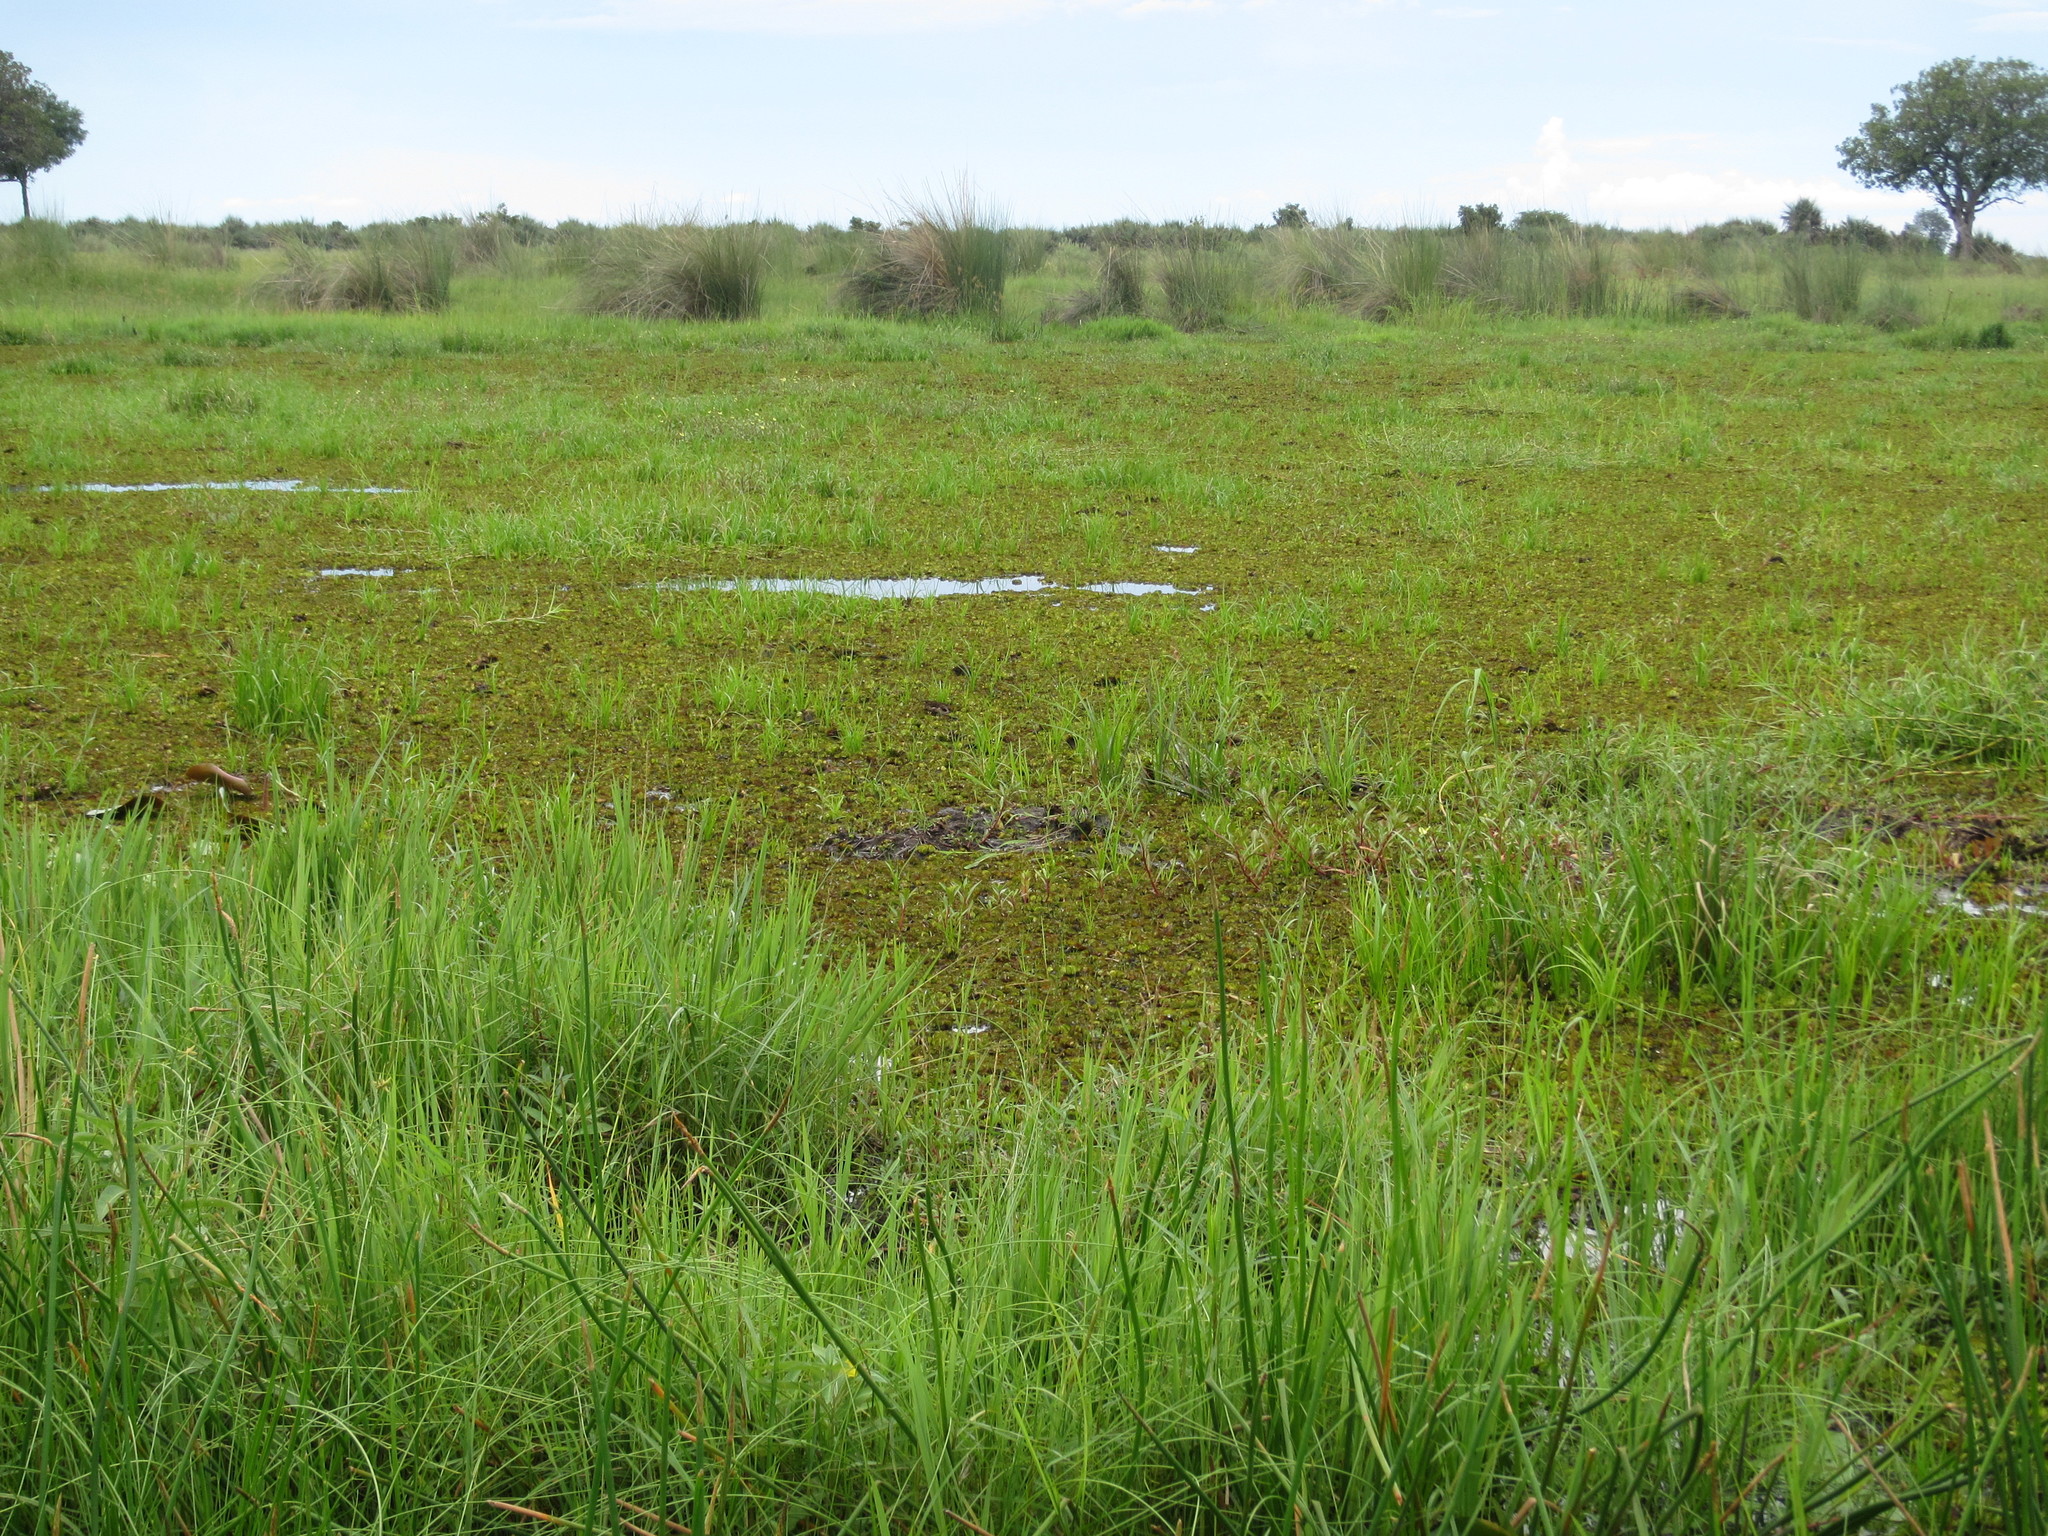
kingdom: Plantae
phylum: Tracheophyta
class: Polypodiopsida
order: Salviniales
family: Salviniaceae
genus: Salvinia
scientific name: Salvinia molesta
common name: Kariba weed
